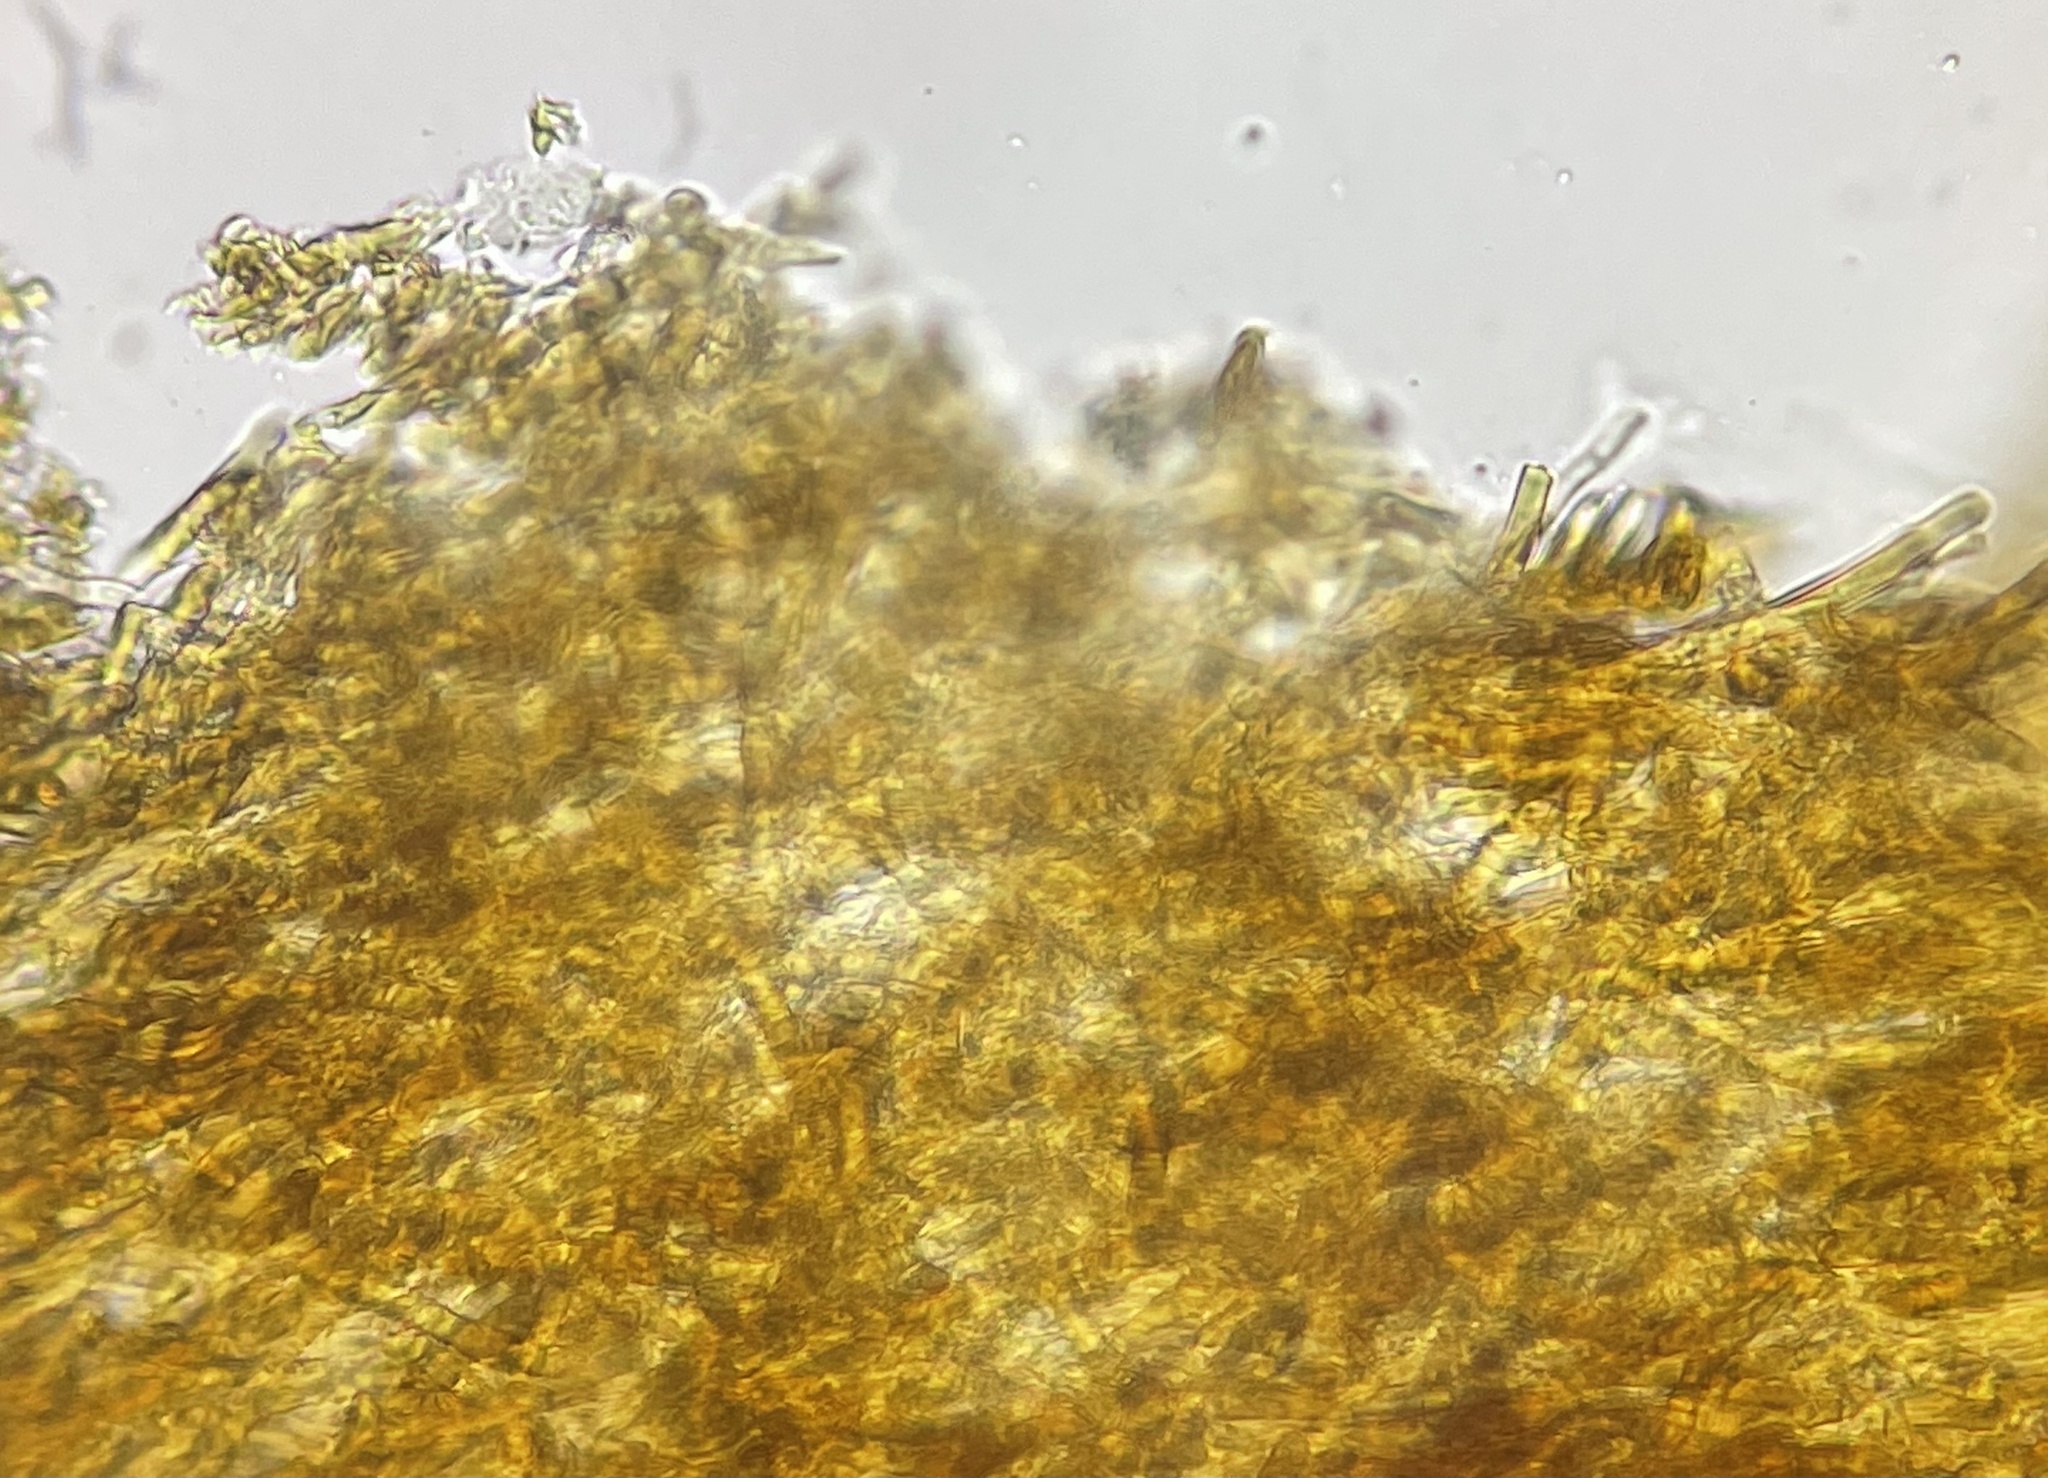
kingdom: Fungi
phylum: Basidiomycota
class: Agaricomycetes
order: Russulales
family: Stereaceae
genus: Xylobolus
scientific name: Xylobolus subpileatus
